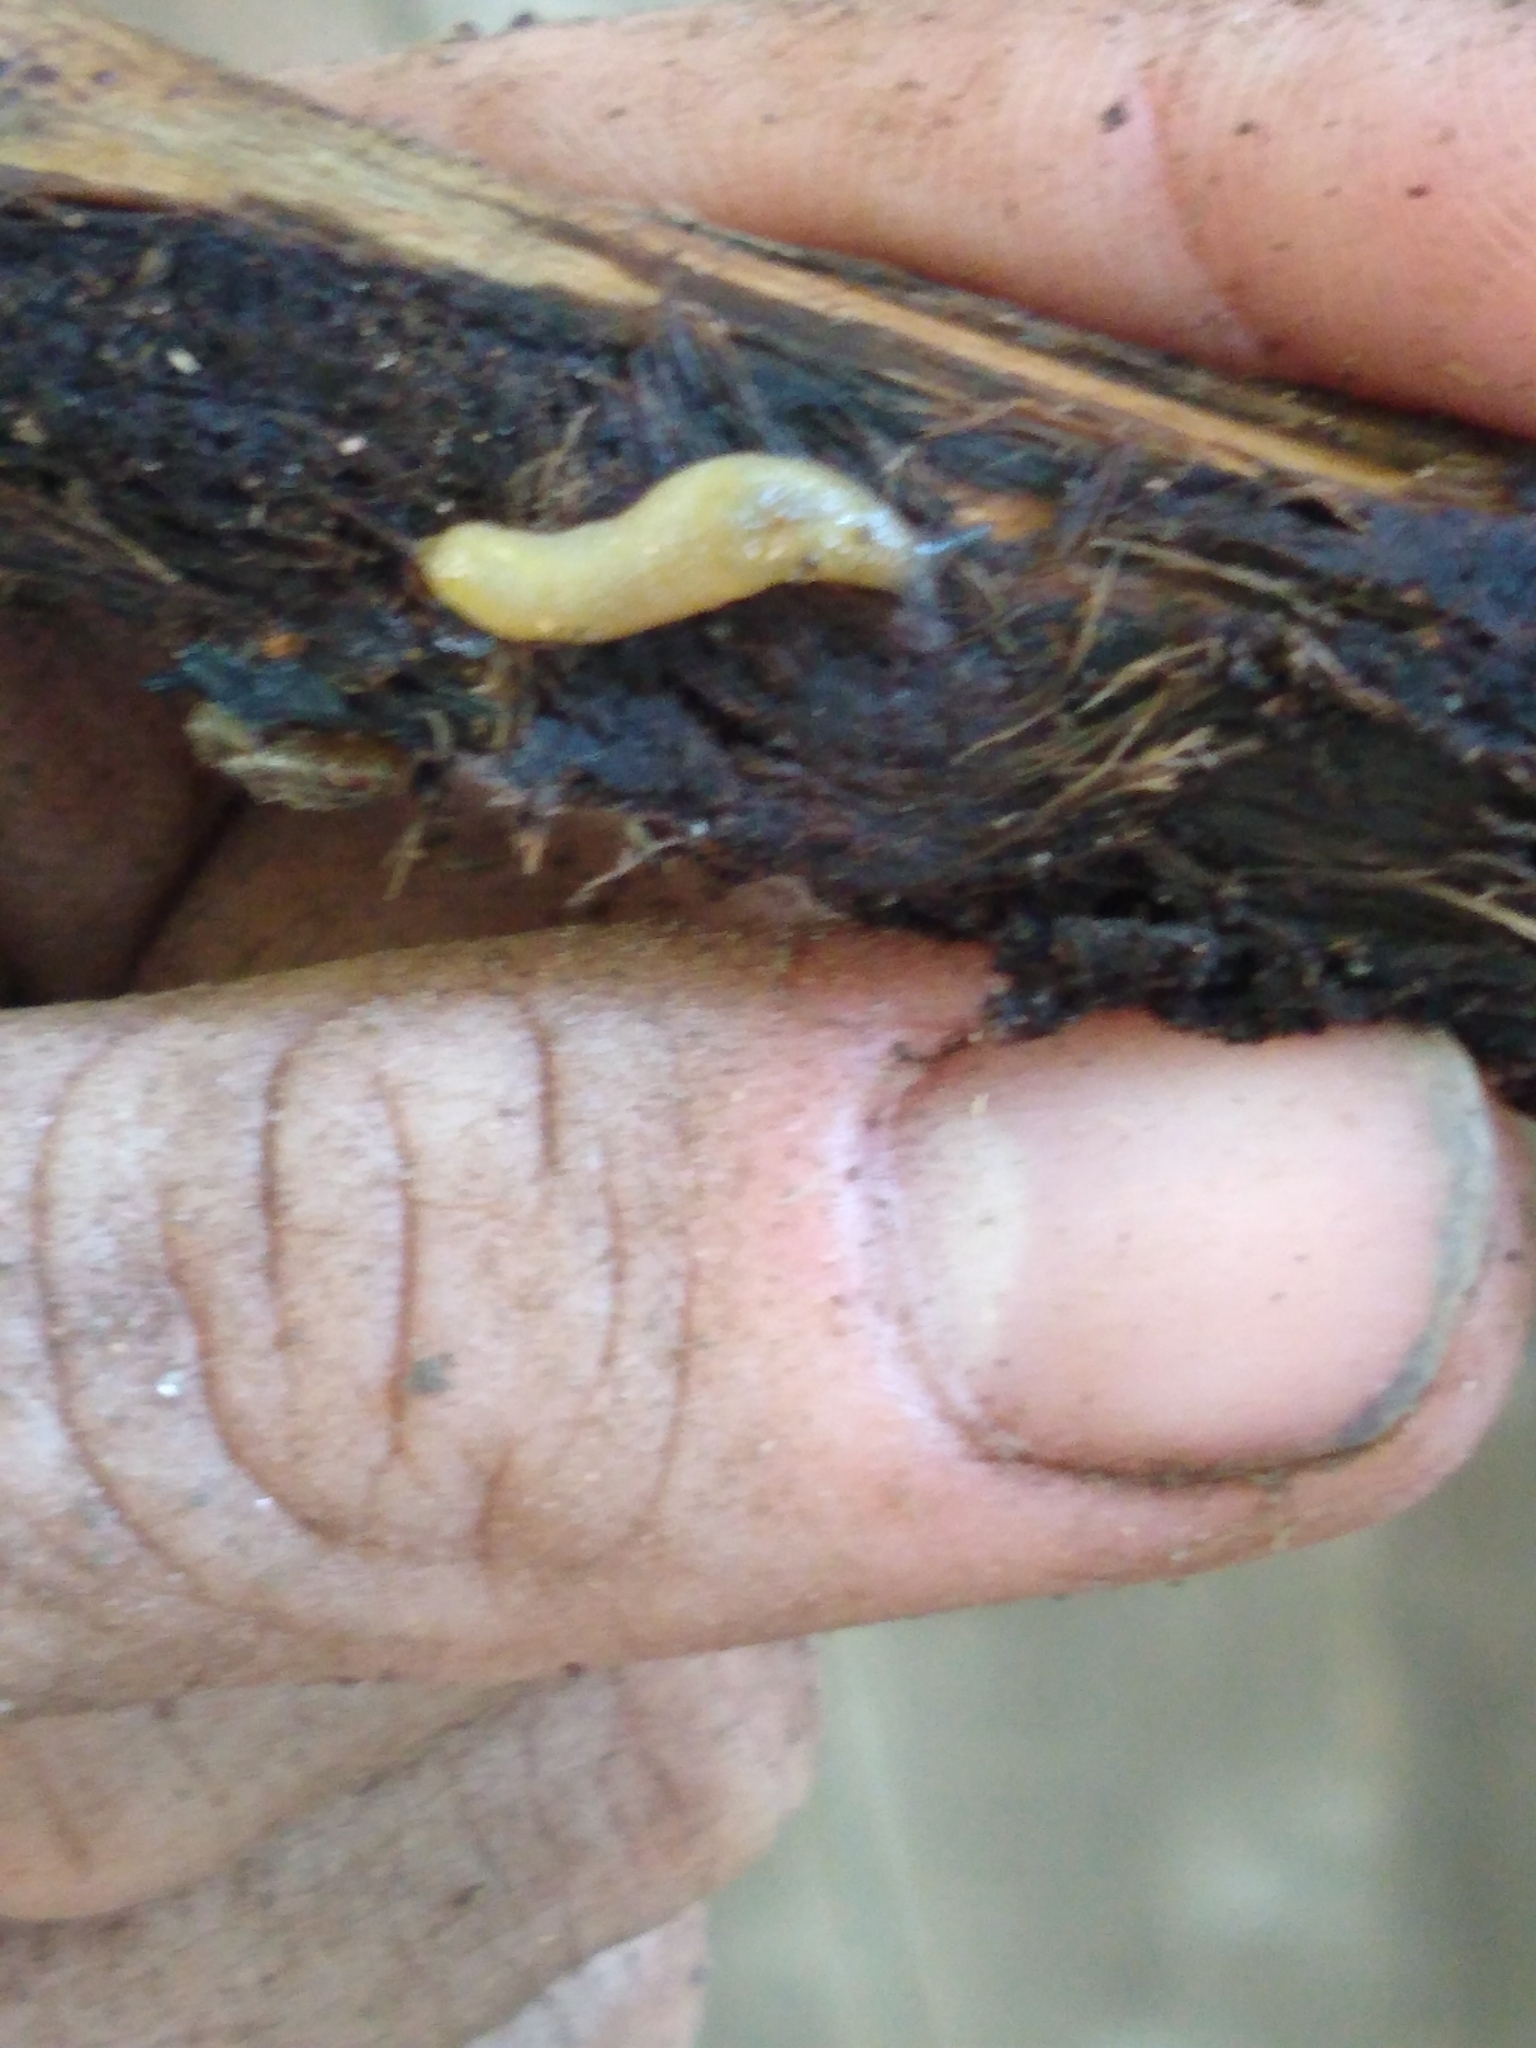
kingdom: Animalia
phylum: Mollusca
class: Gastropoda
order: Stylommatophora
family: Arionidae
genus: Arion
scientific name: Arion intermedius
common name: Hedgehog slug
